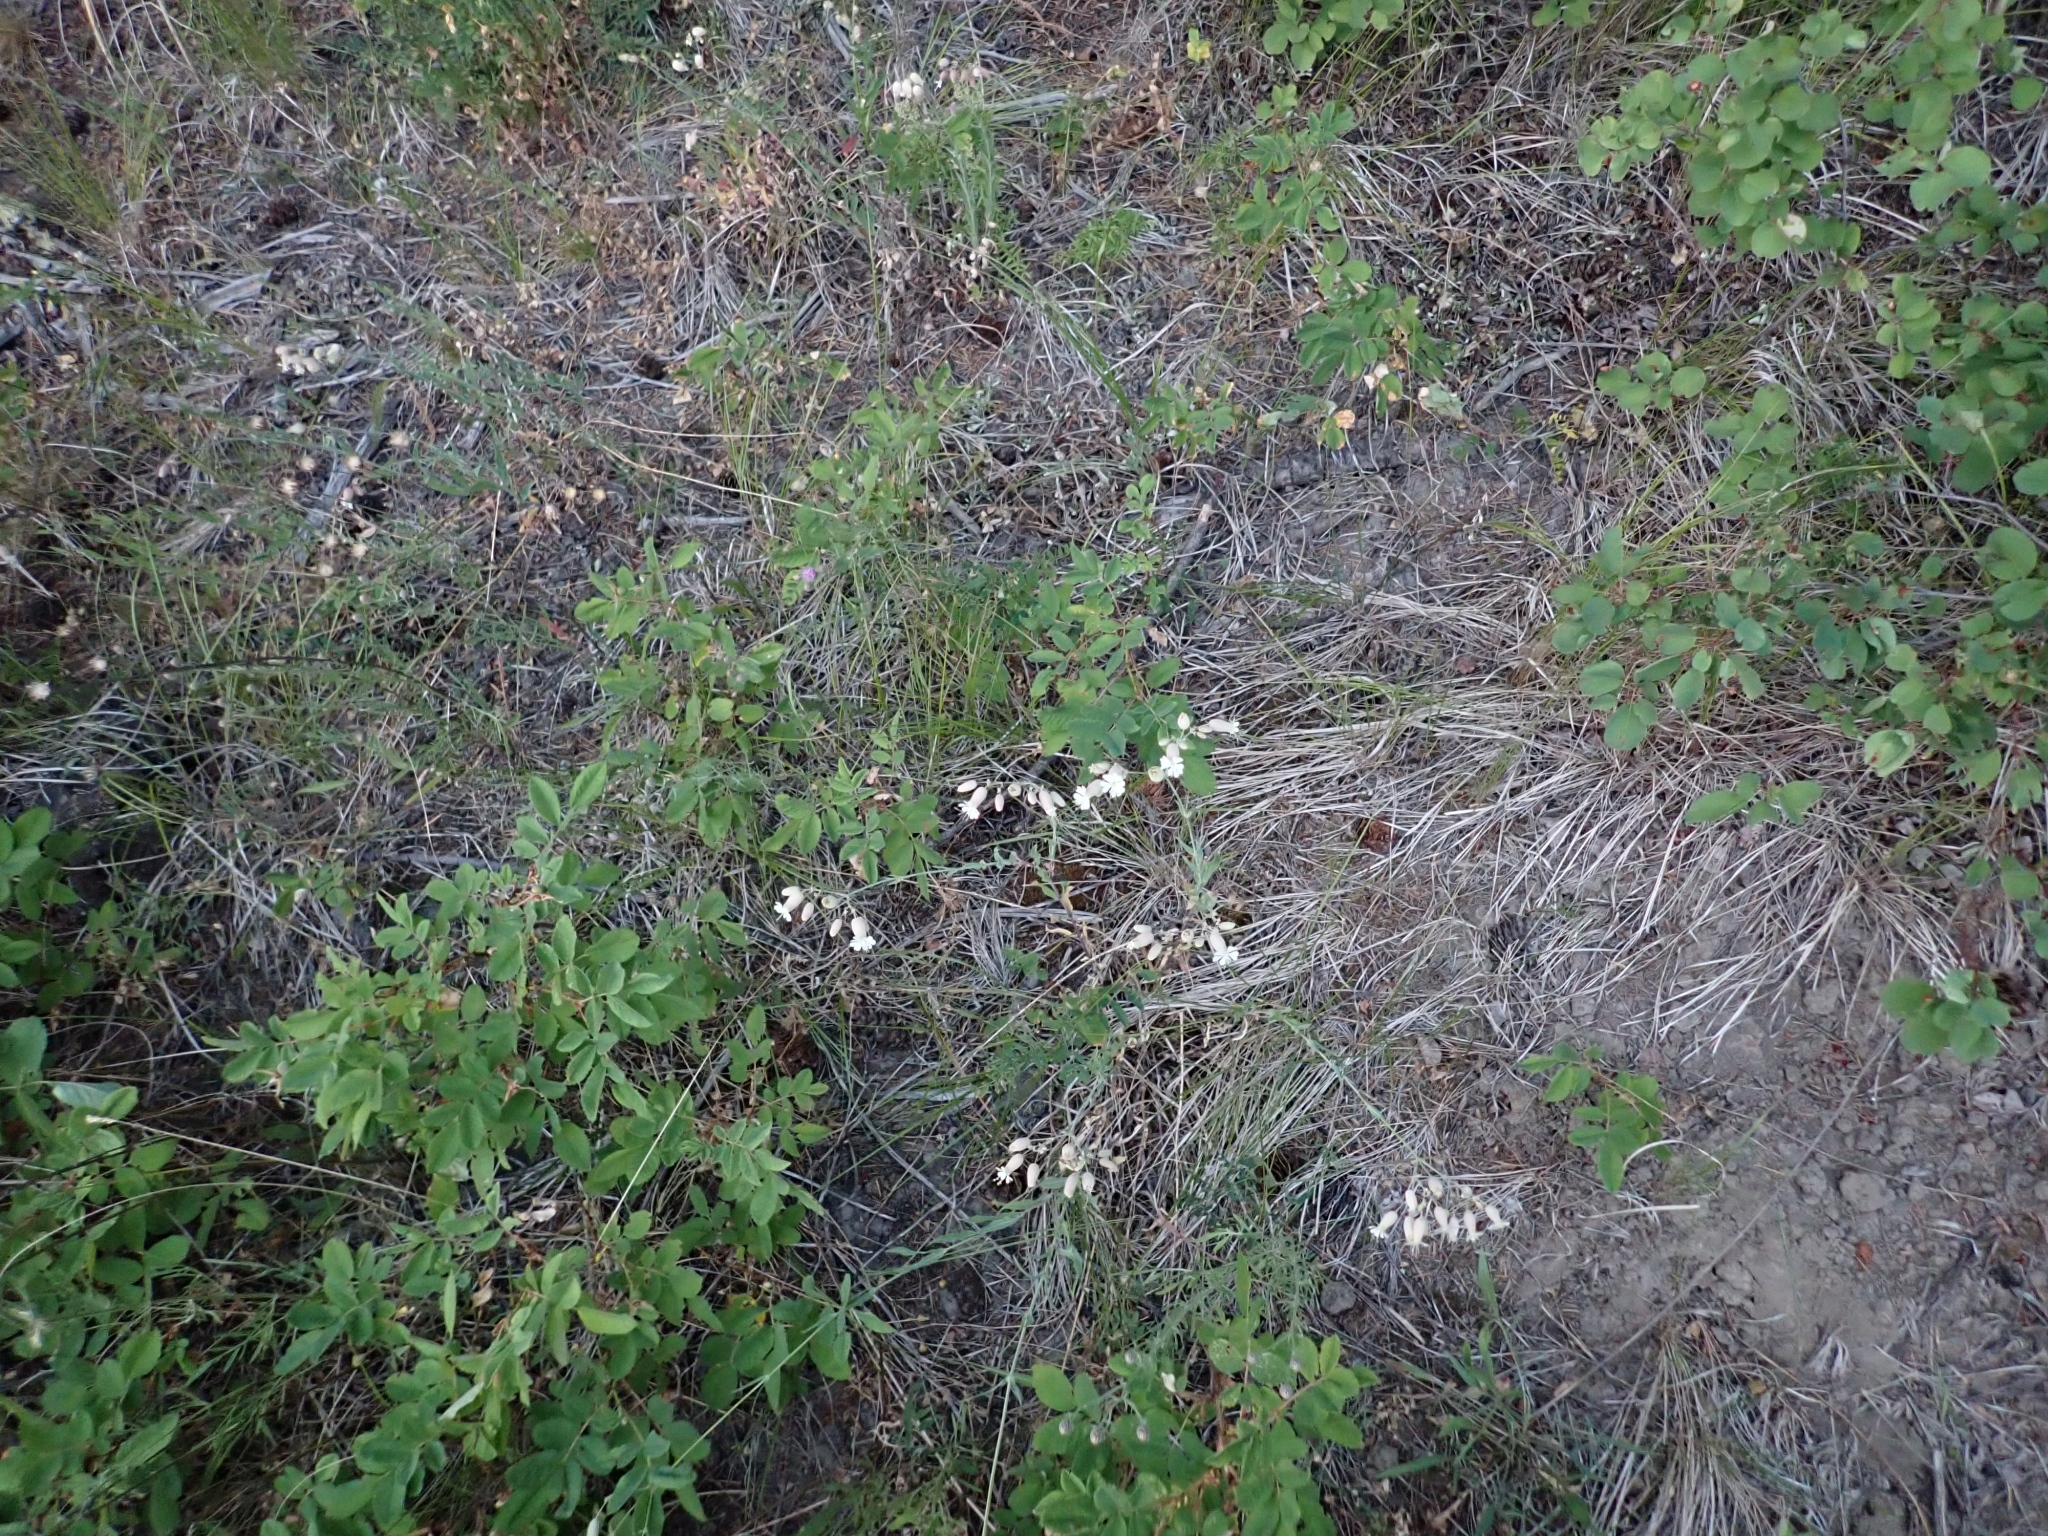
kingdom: Plantae
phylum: Tracheophyta
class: Magnoliopsida
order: Caryophyllales
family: Caryophyllaceae
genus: Silene
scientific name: Silene vulgaris
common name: Bladder campion
